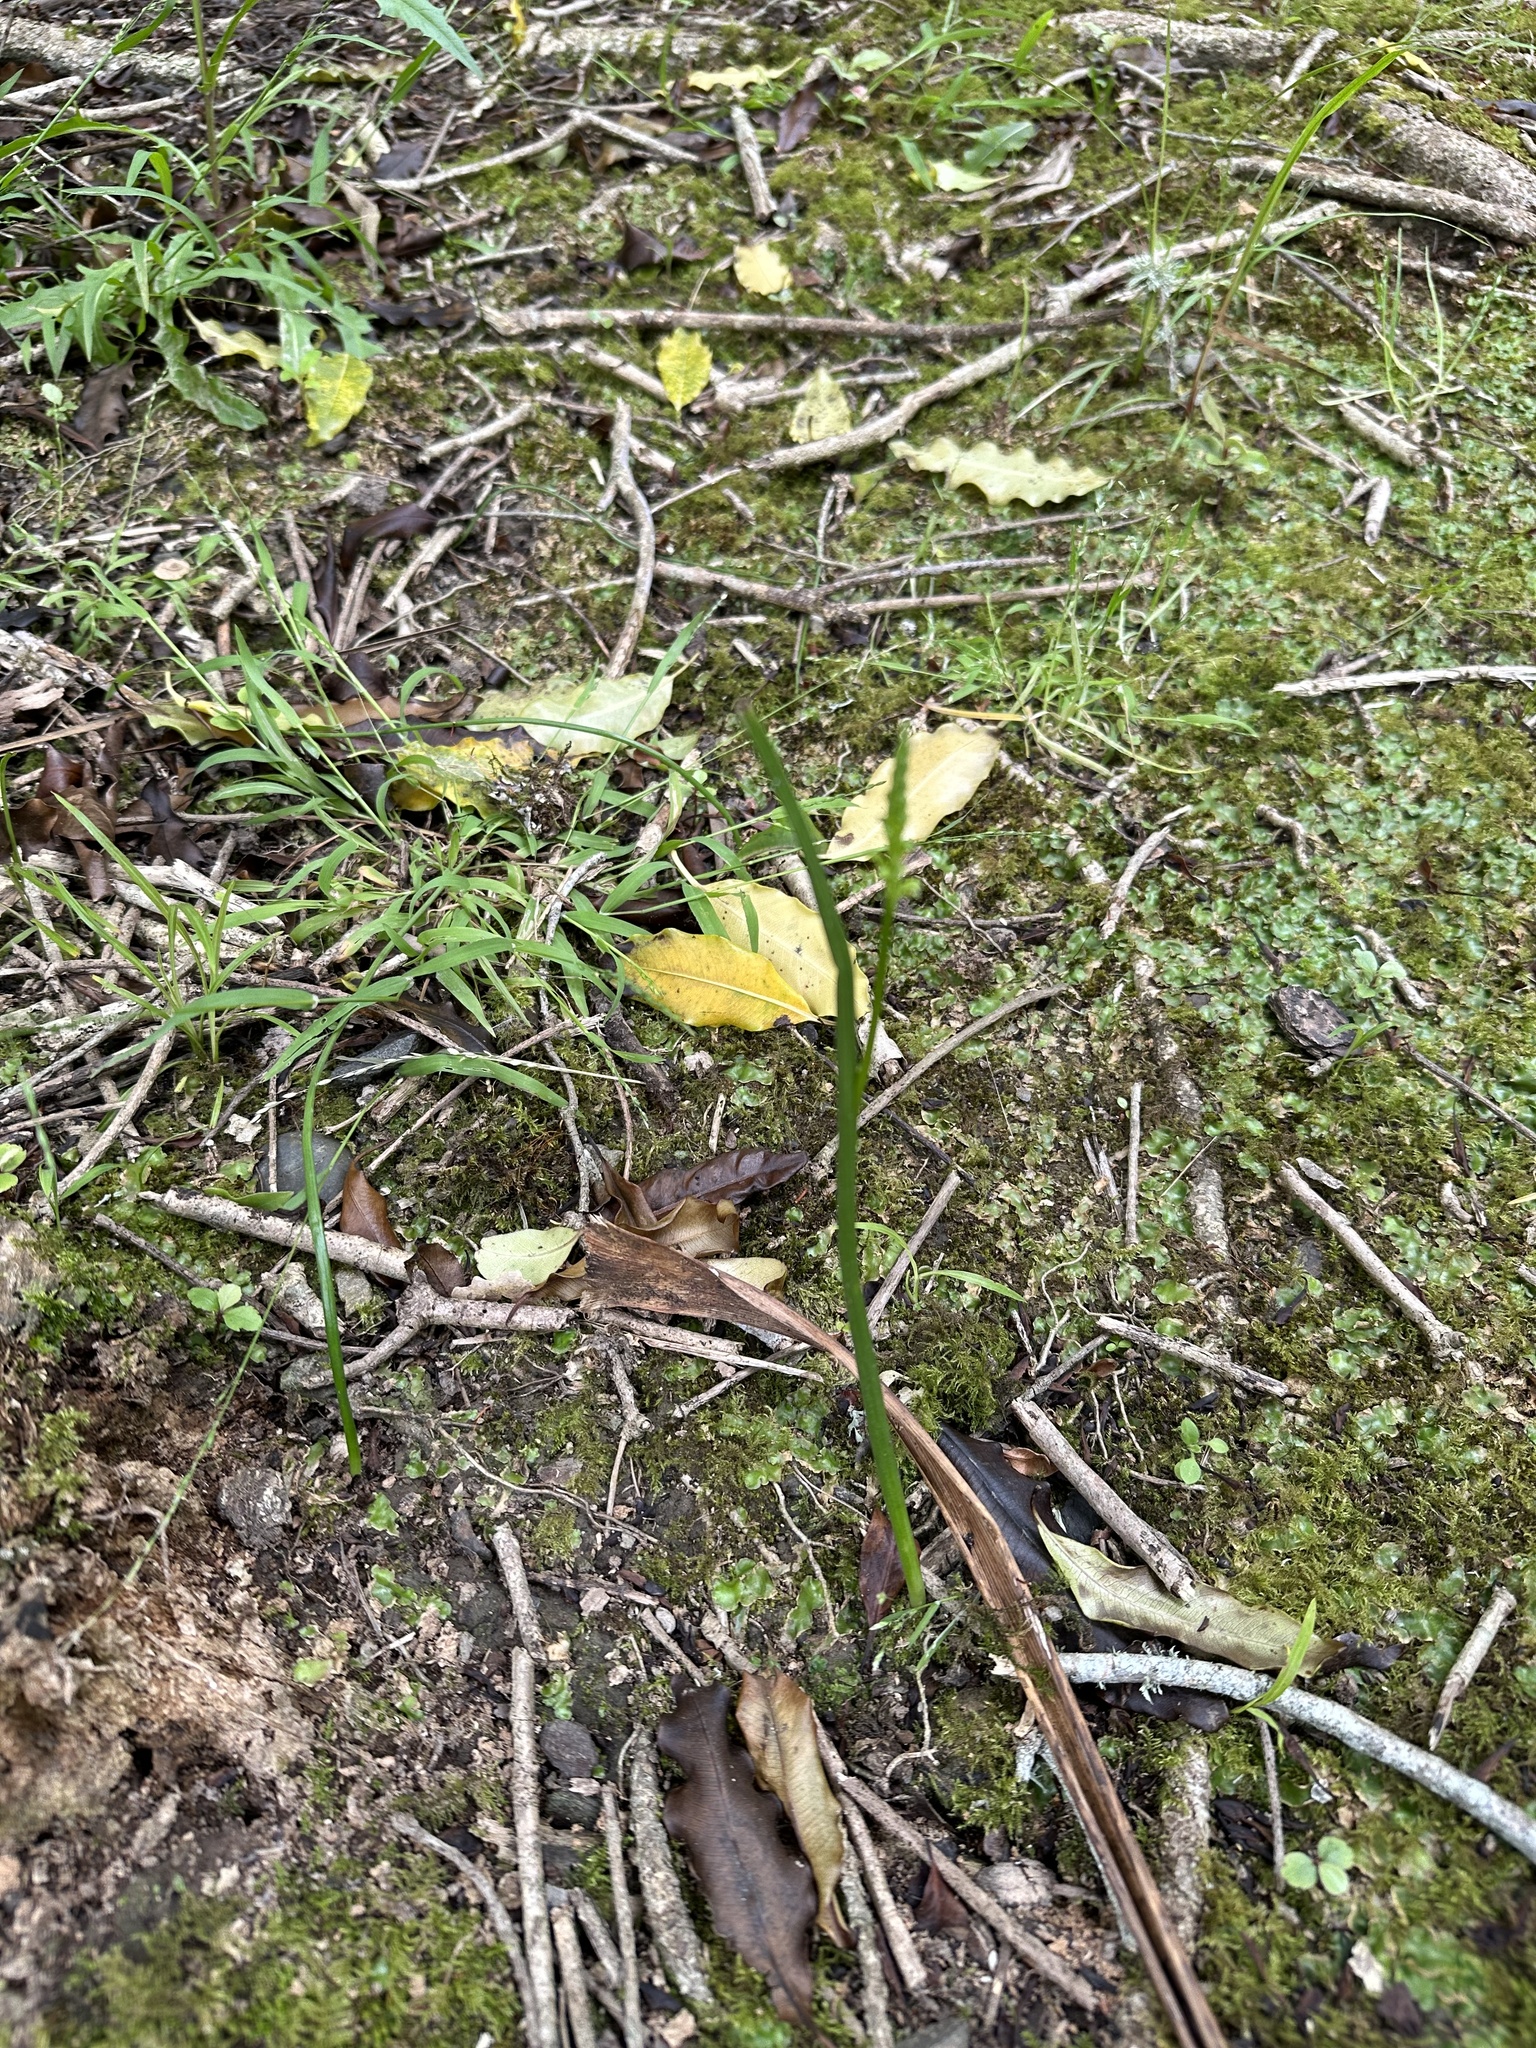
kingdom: Plantae
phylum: Tracheophyta
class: Liliopsida
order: Asparagales
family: Orchidaceae
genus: Microtis
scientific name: Microtis unifolia
